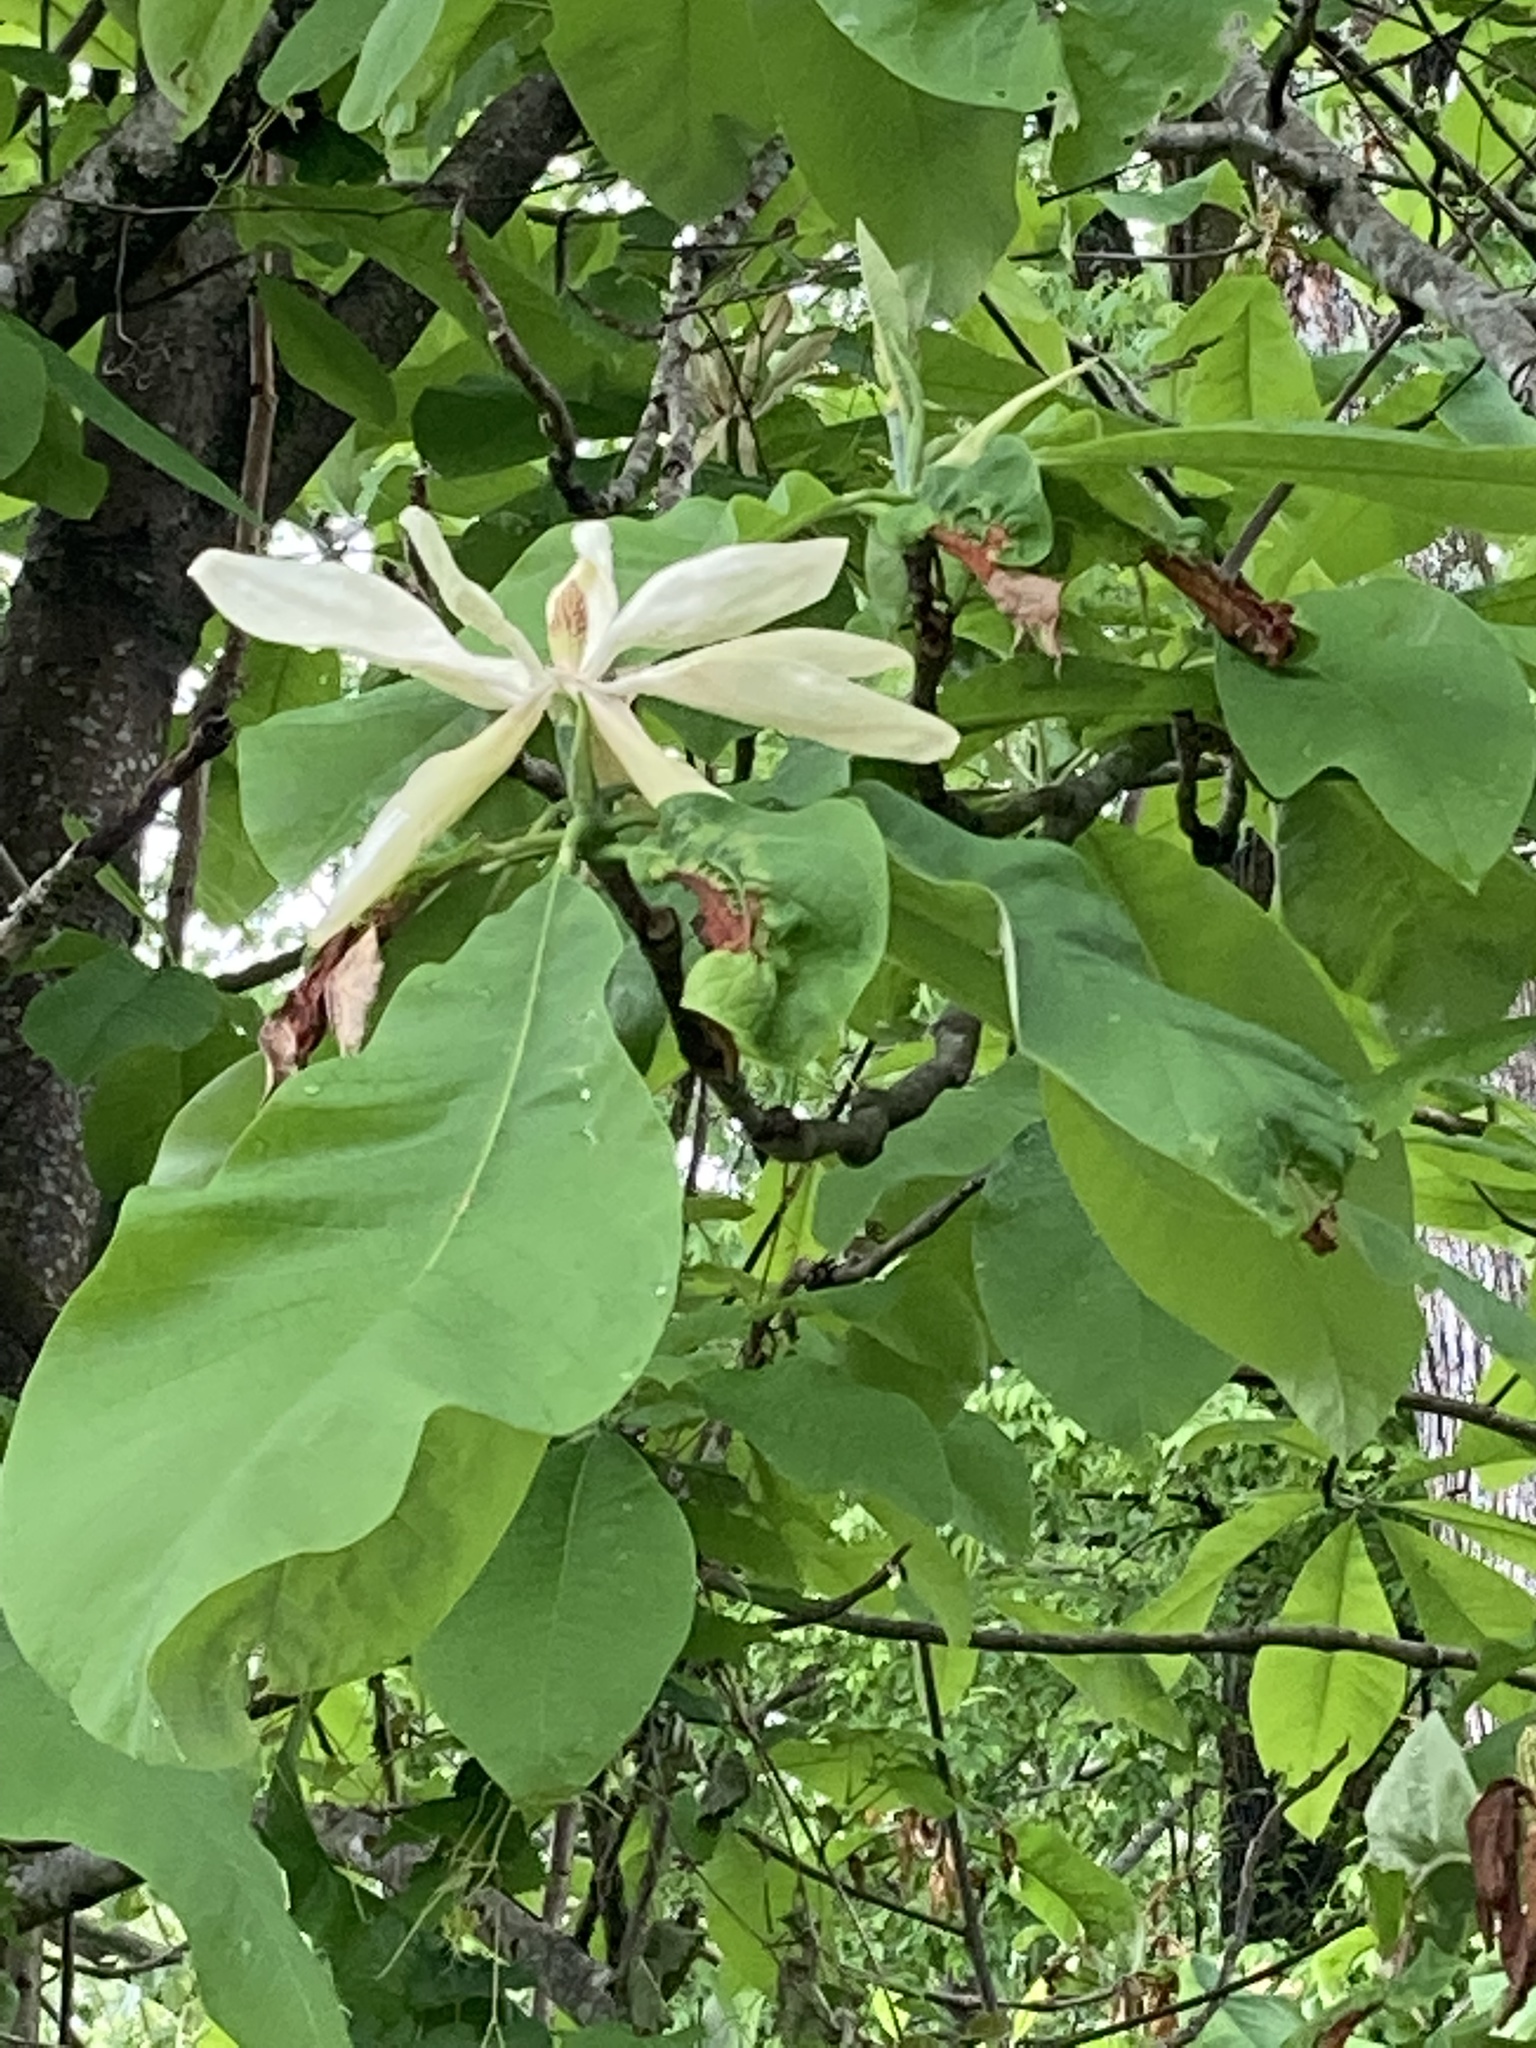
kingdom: Plantae
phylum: Tracheophyta
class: Magnoliopsida
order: Magnoliales
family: Magnoliaceae
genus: Magnolia
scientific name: Magnolia tripetala
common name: Umbrella magnolia
